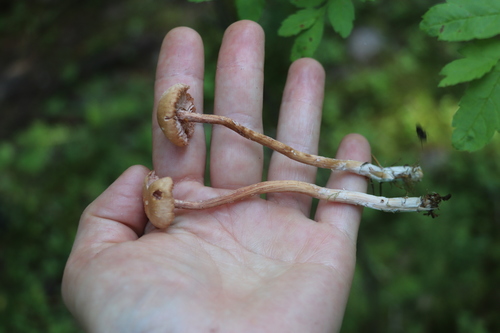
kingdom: Fungi
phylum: Basidiomycota
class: Agaricomycetes
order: Agaricales
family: Hydnangiaceae
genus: Laccaria
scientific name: Laccaria proxima
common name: Scurfy deceiver
